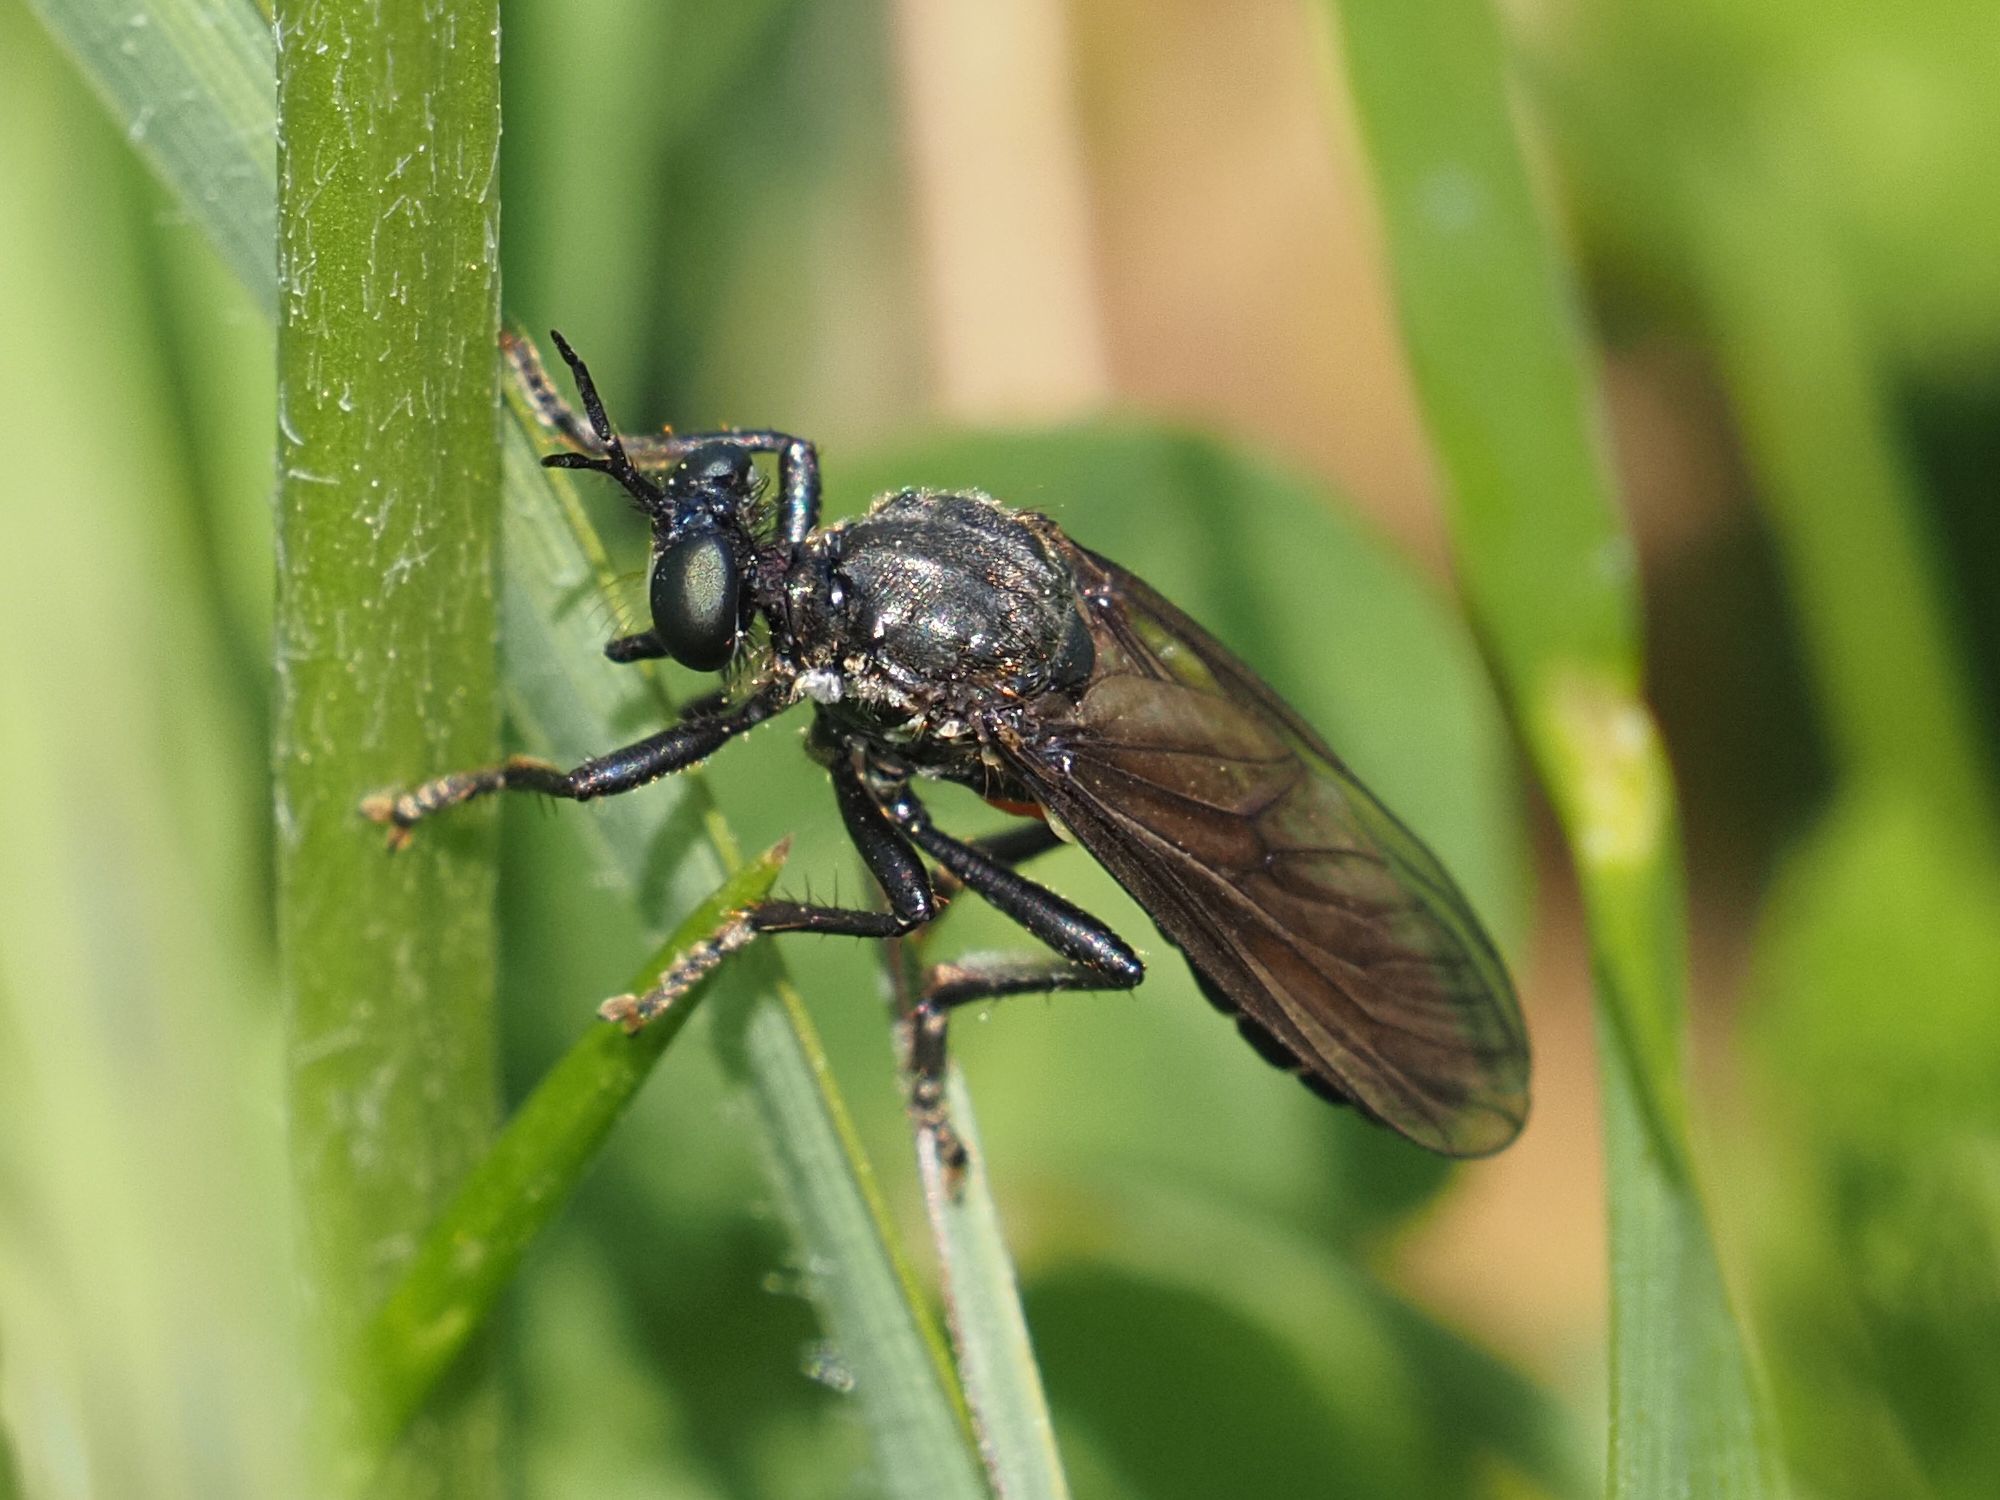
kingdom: Animalia
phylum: Arthropoda
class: Insecta
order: Diptera
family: Asilidae
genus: Dioctria
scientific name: Dioctria atricapilla
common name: Violet black-legged
